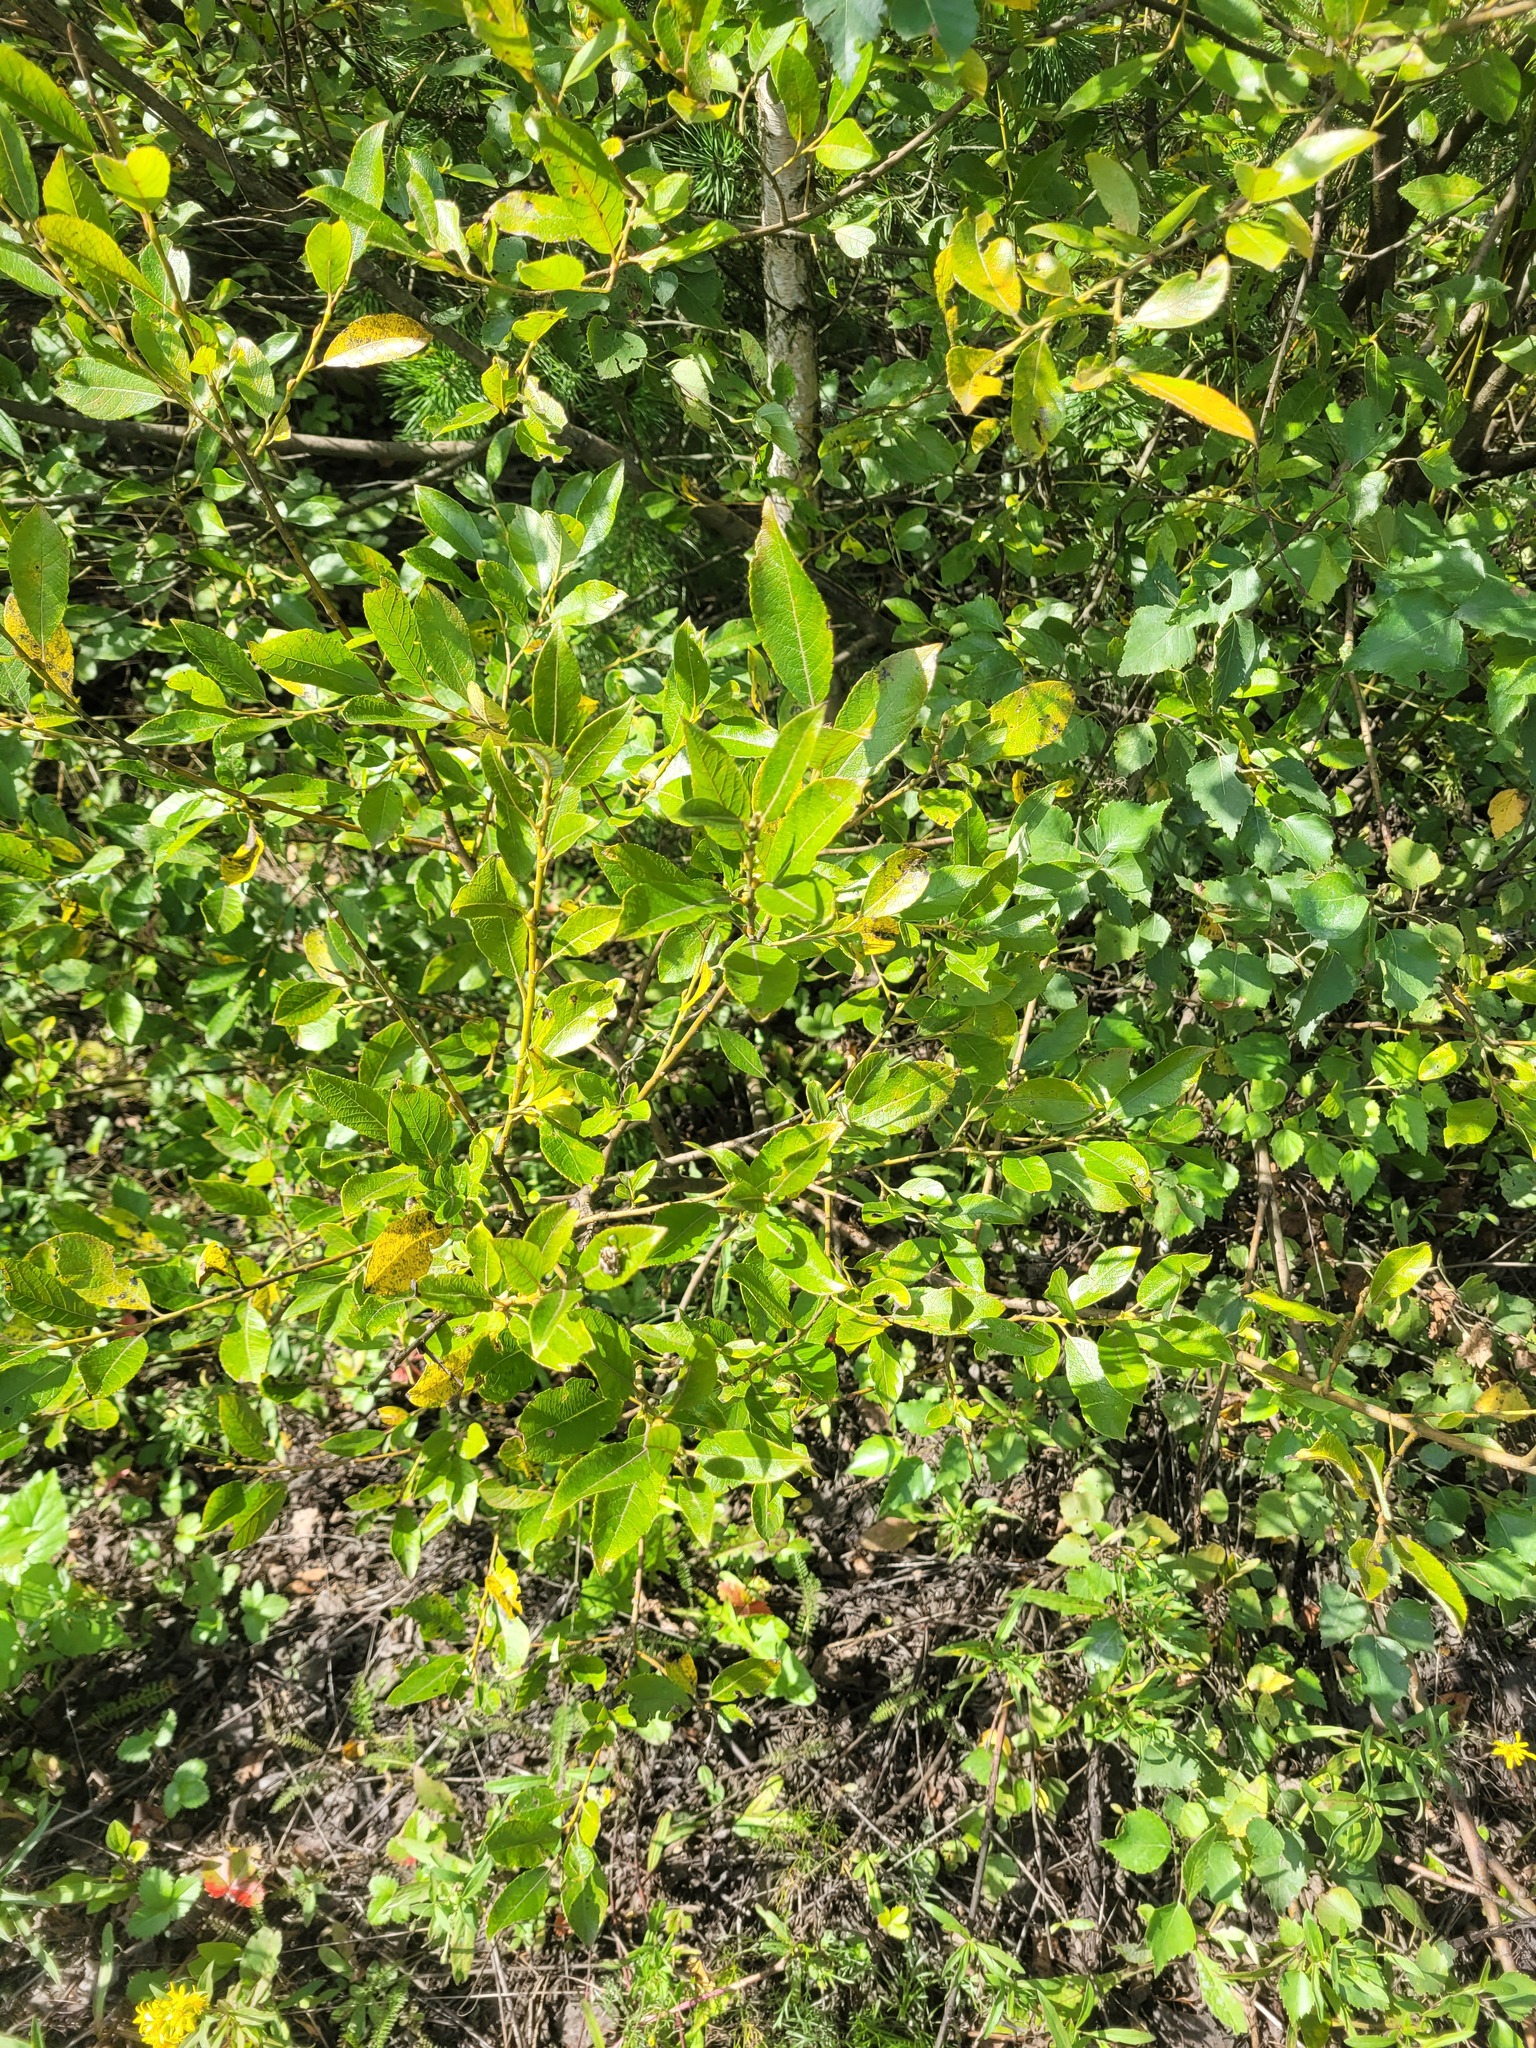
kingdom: Plantae
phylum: Tracheophyta
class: Magnoliopsida
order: Malpighiales
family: Salicaceae
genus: Salix
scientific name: Salix myrsinifolia
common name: Dark-leaved willow
